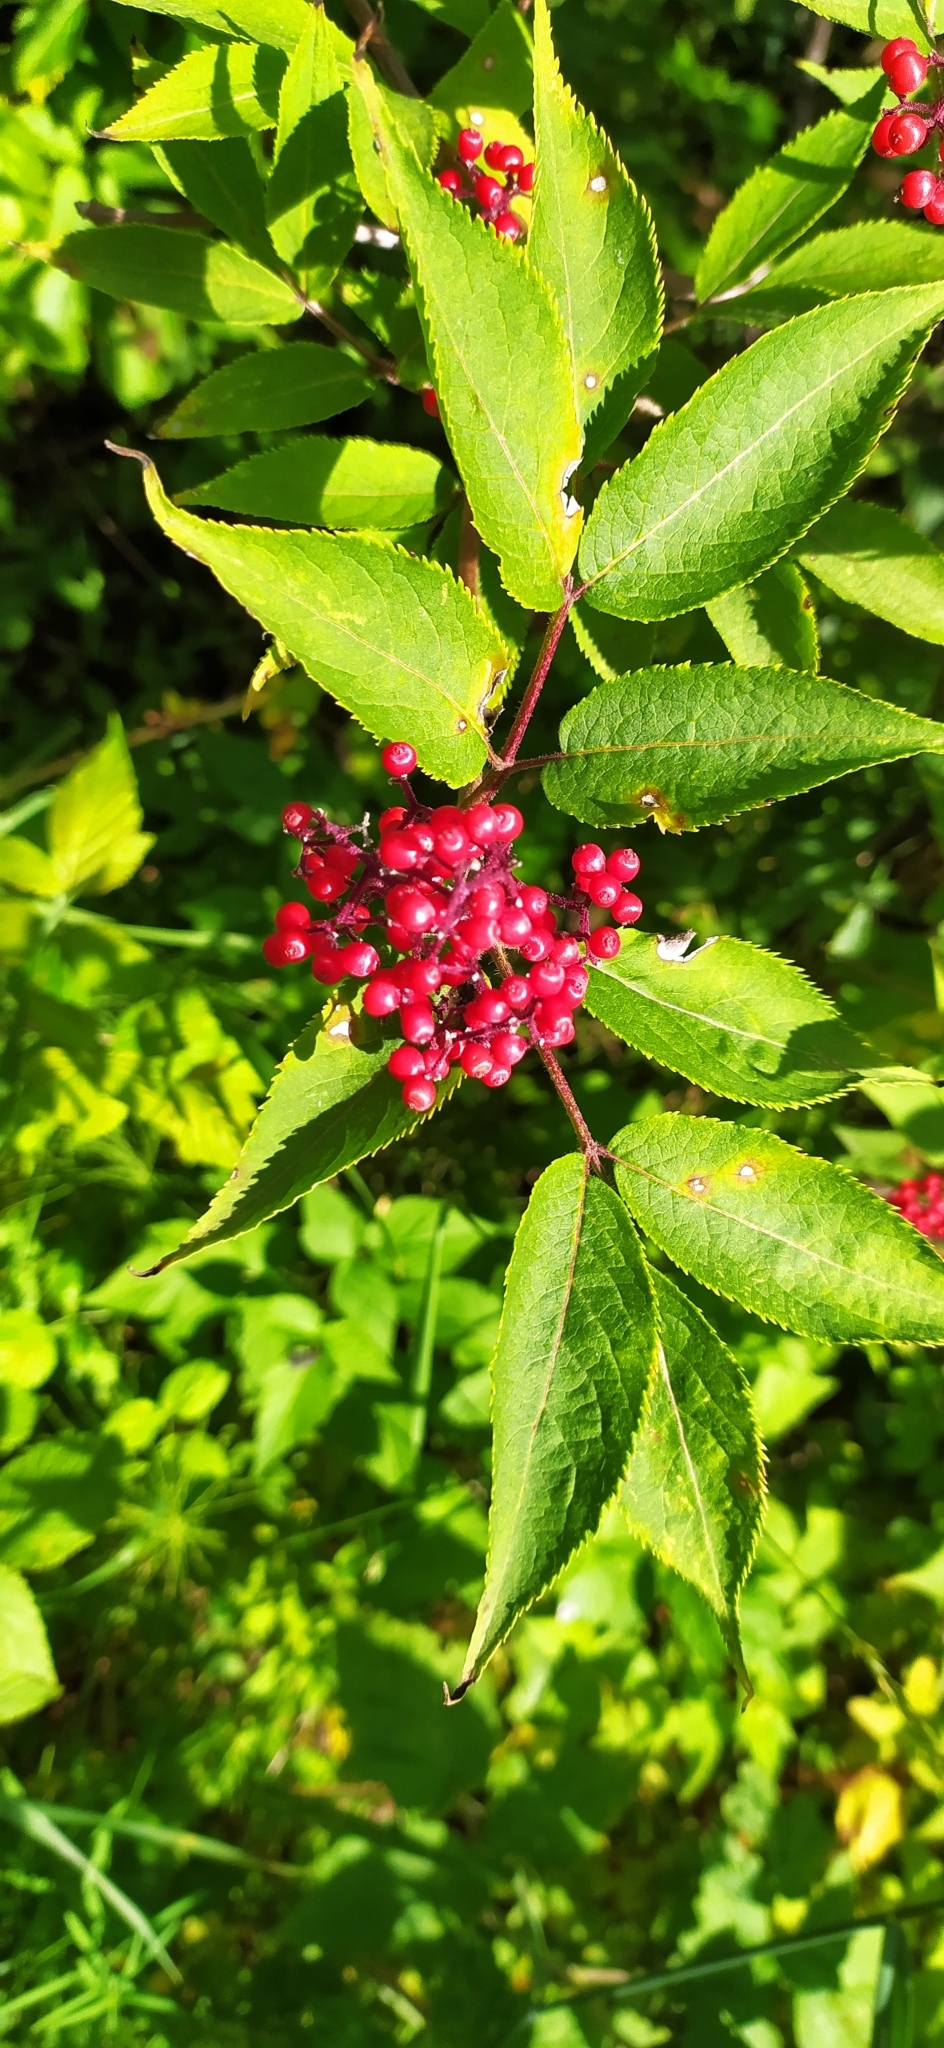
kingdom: Plantae
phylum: Tracheophyta
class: Magnoliopsida
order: Dipsacales
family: Viburnaceae
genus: Sambucus
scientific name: Sambucus sibirica
